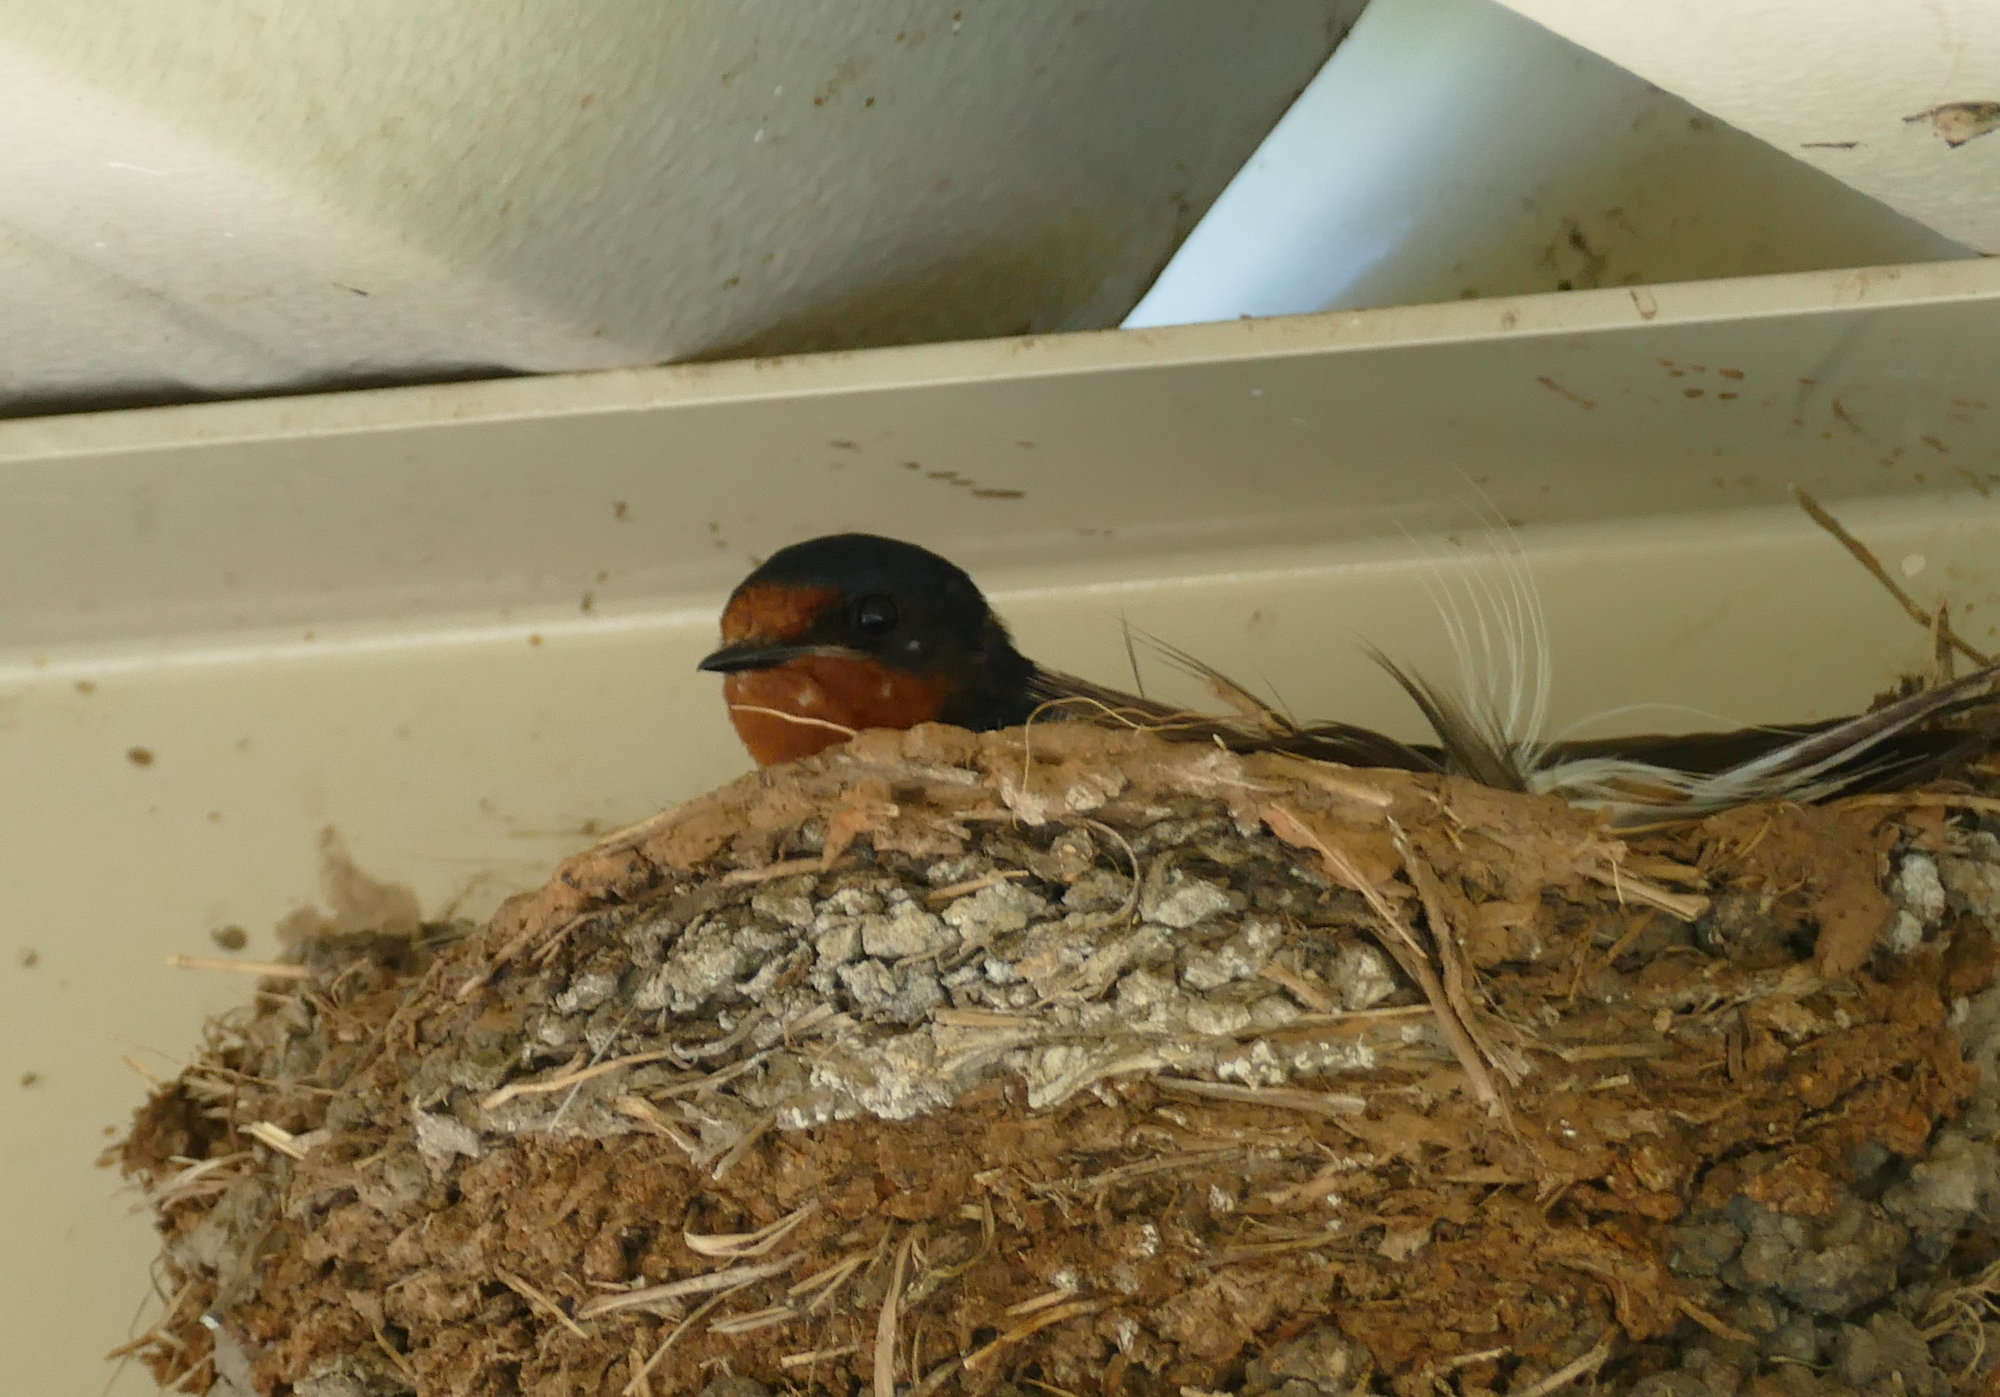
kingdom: Animalia
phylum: Chordata
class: Aves
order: Passeriformes
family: Hirundinidae
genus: Hirundo
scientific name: Hirundo rustica
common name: Barn swallow
